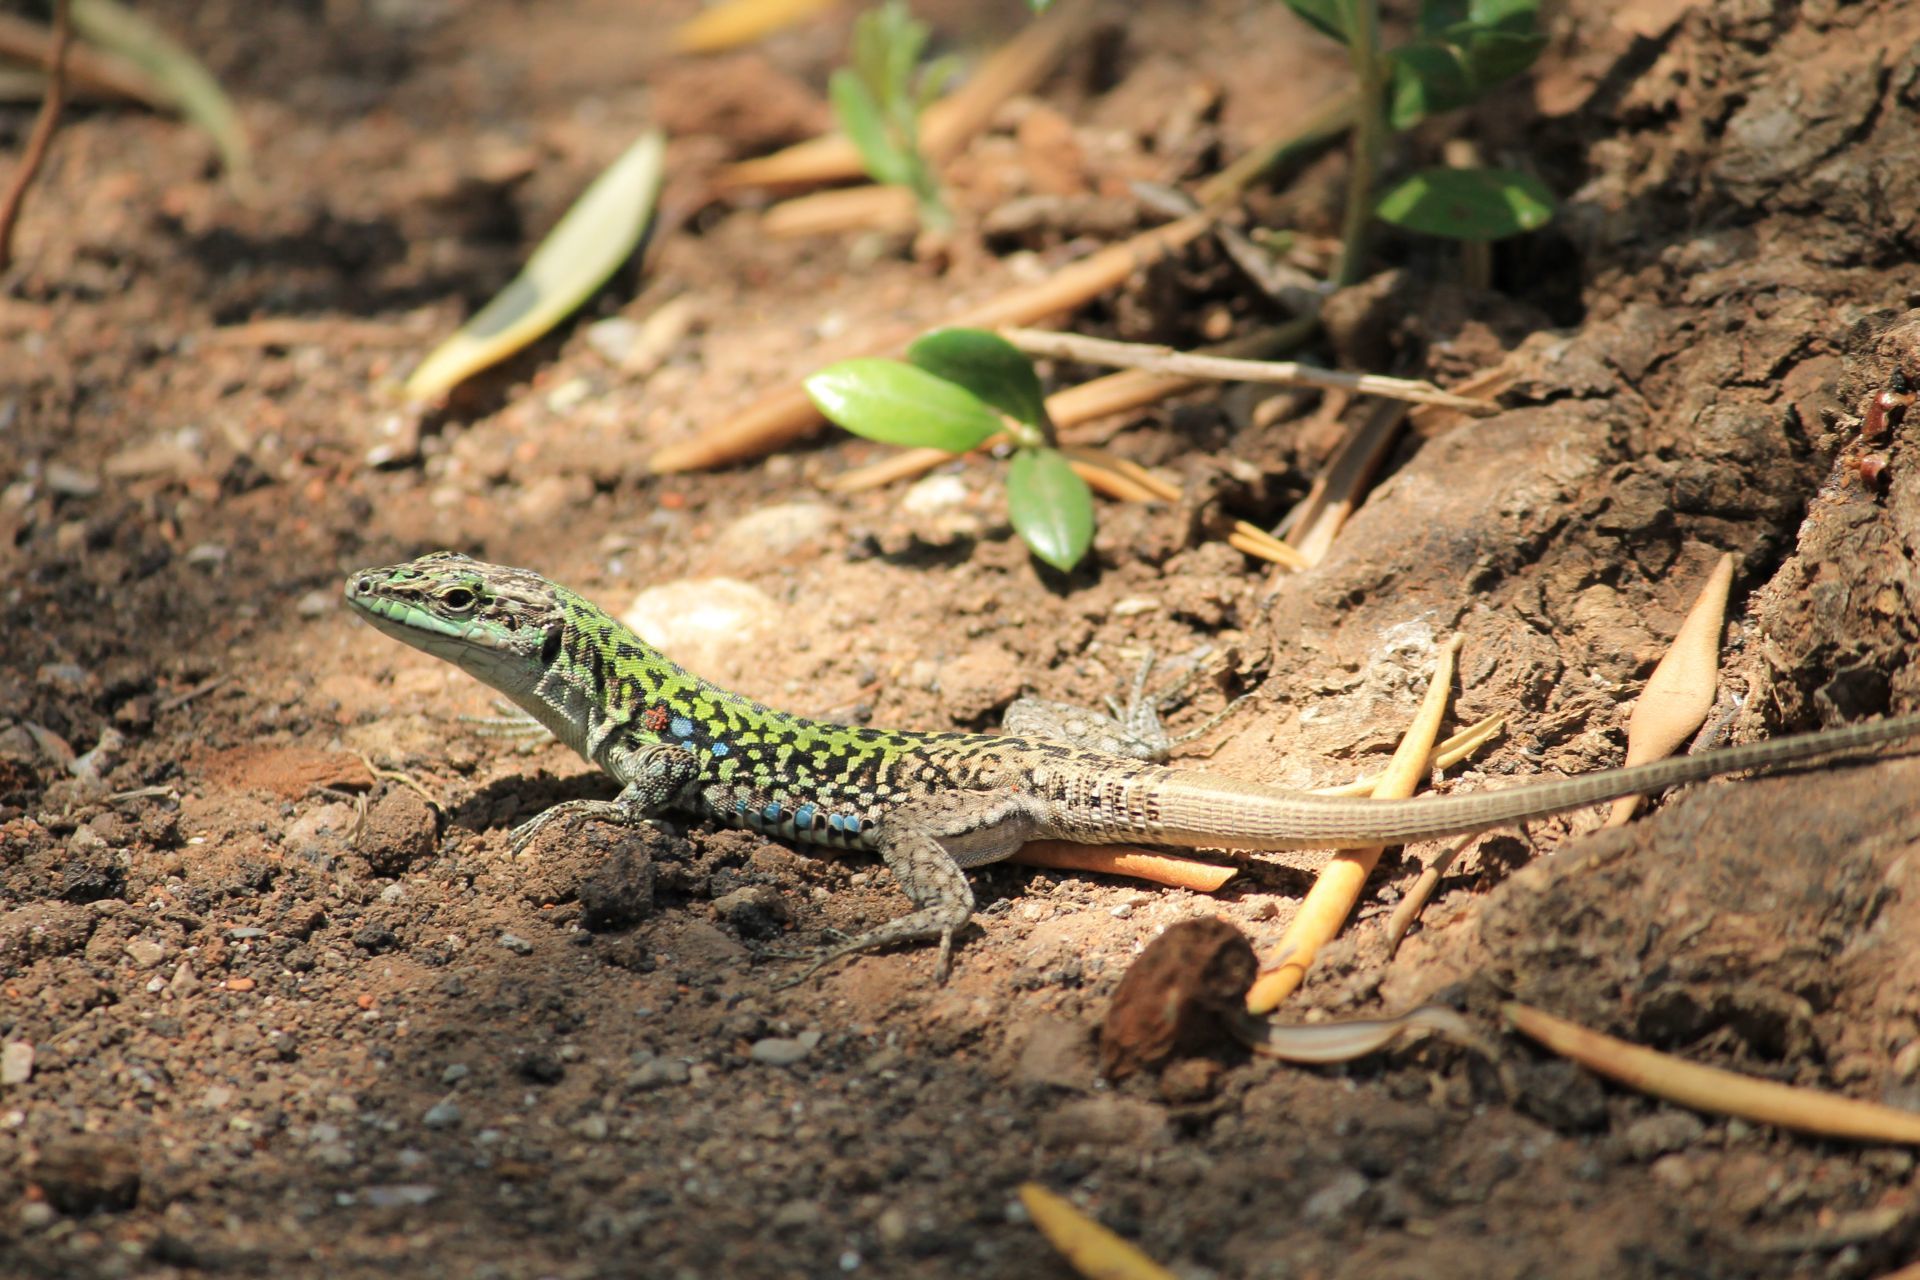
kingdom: Animalia
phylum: Chordata
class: Squamata
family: Lacertidae
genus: Podarcis
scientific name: Podarcis siculus
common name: Italian wall lizard
